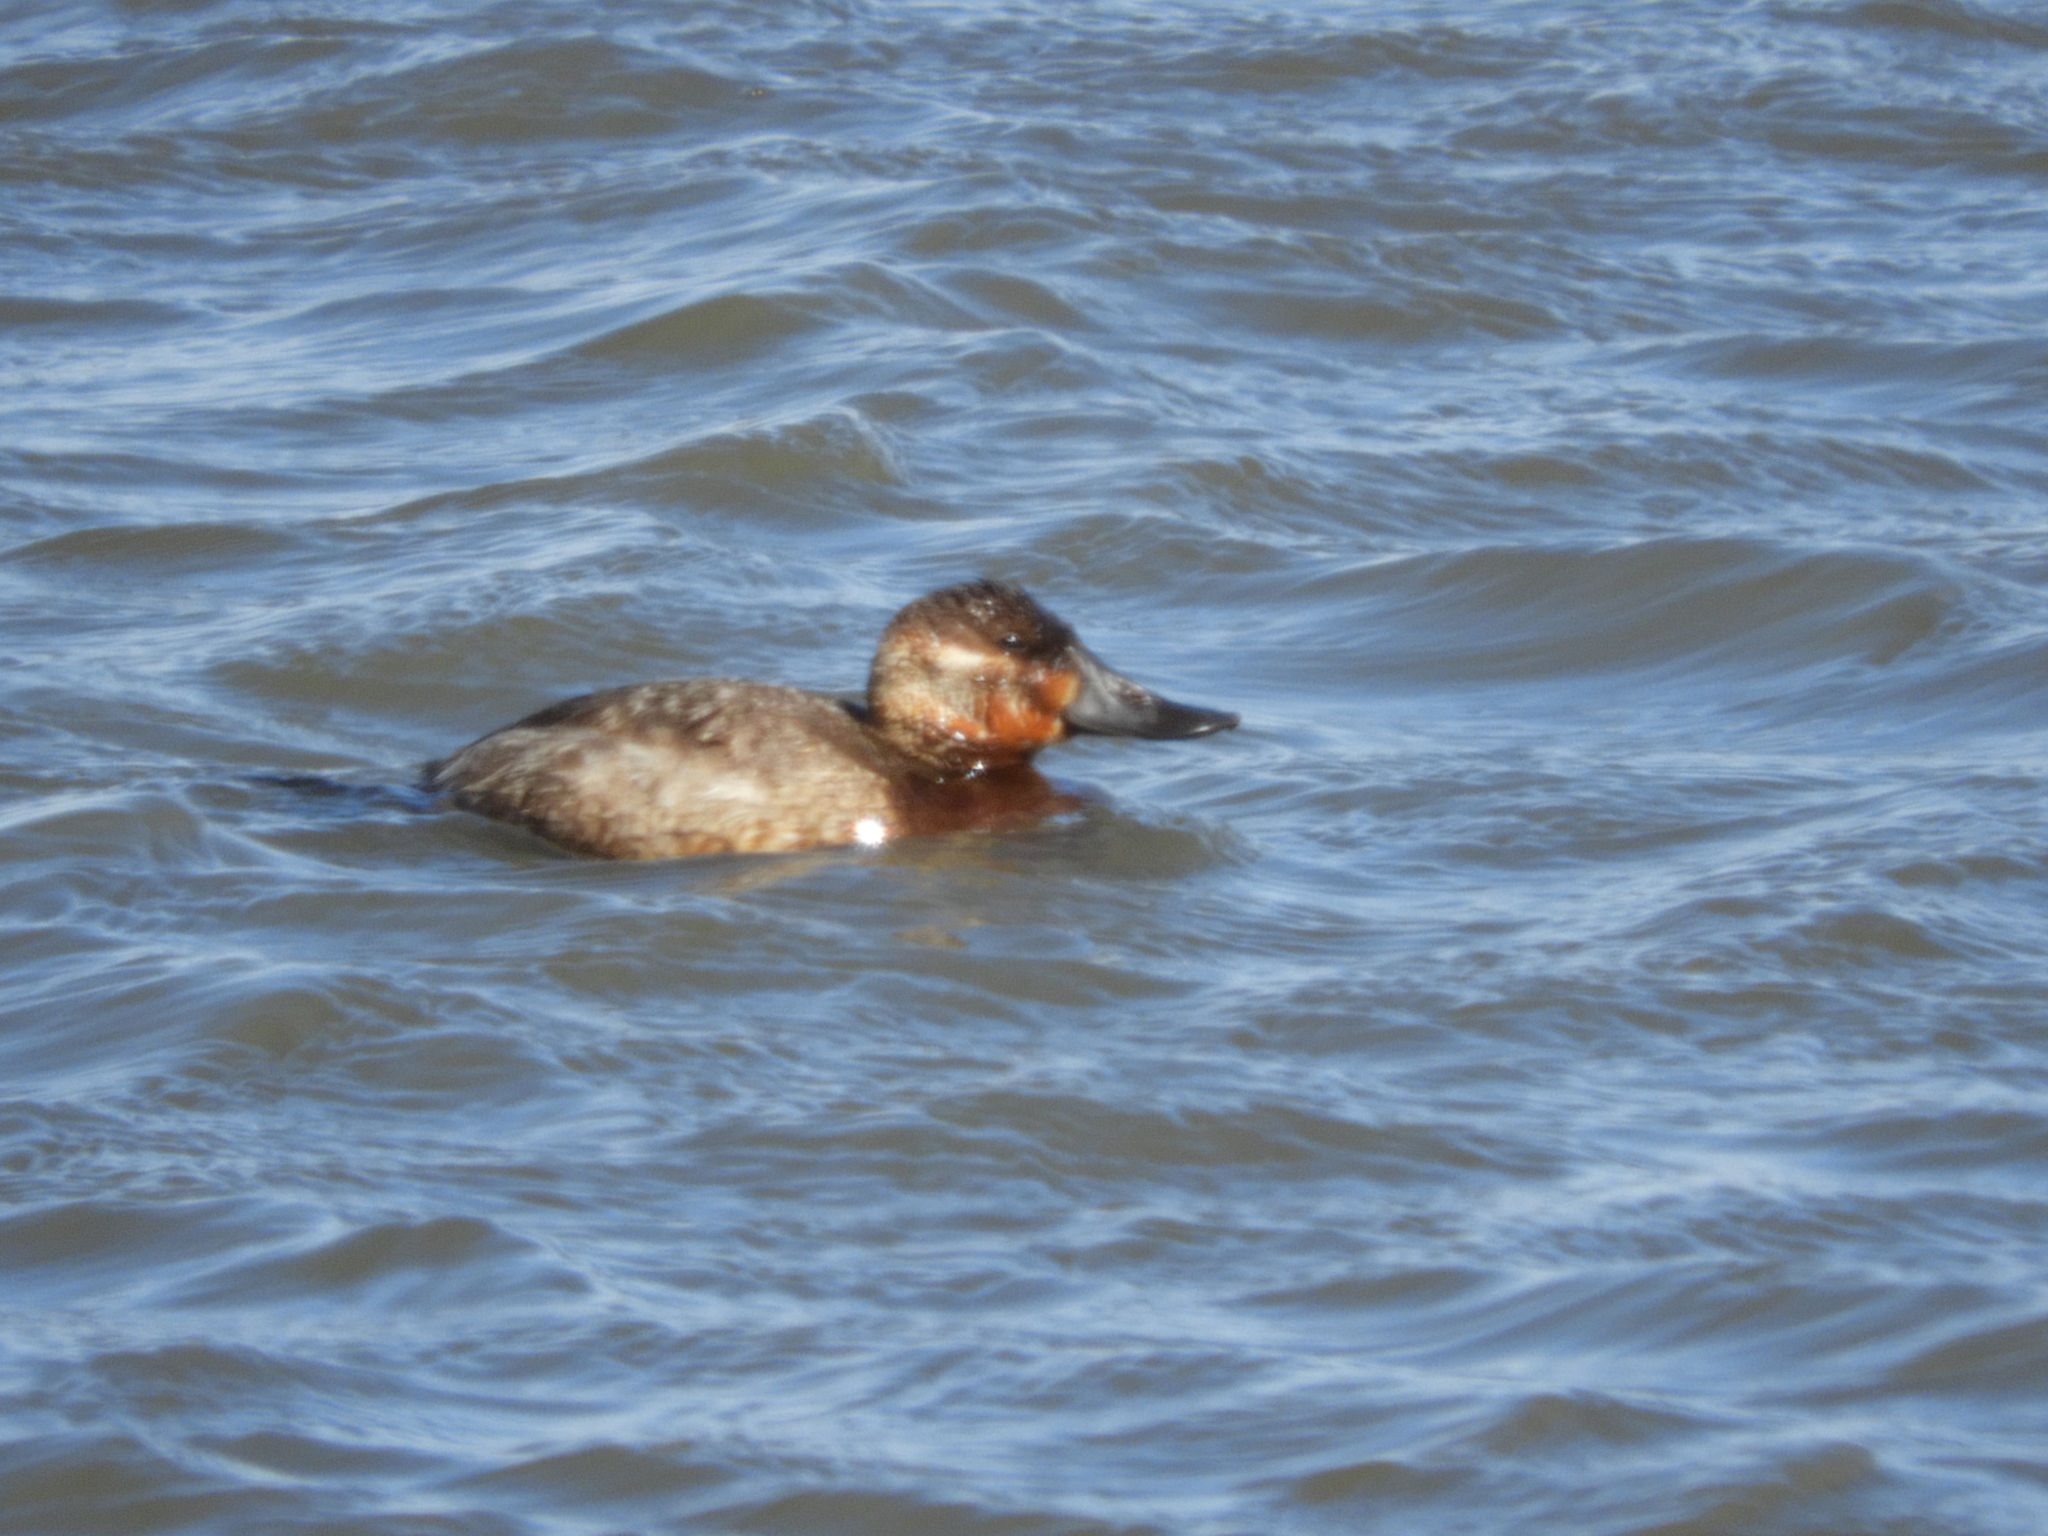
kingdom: Animalia
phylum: Chordata
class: Aves
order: Anseriformes
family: Anatidae
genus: Oxyura
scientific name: Oxyura jamaicensis
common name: Ruddy duck
